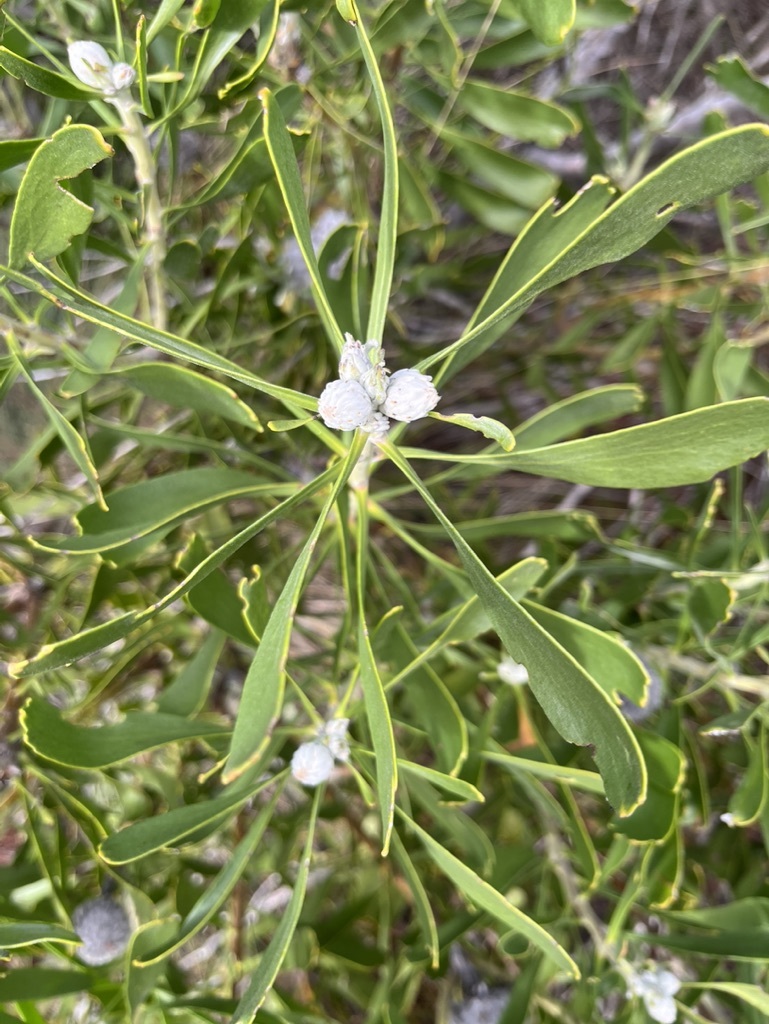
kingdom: Plantae
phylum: Tracheophyta
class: Magnoliopsida
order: Proteales
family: Proteaceae
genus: Leucospermum
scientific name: Leucospermum truncatum
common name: Limestone pincushion
